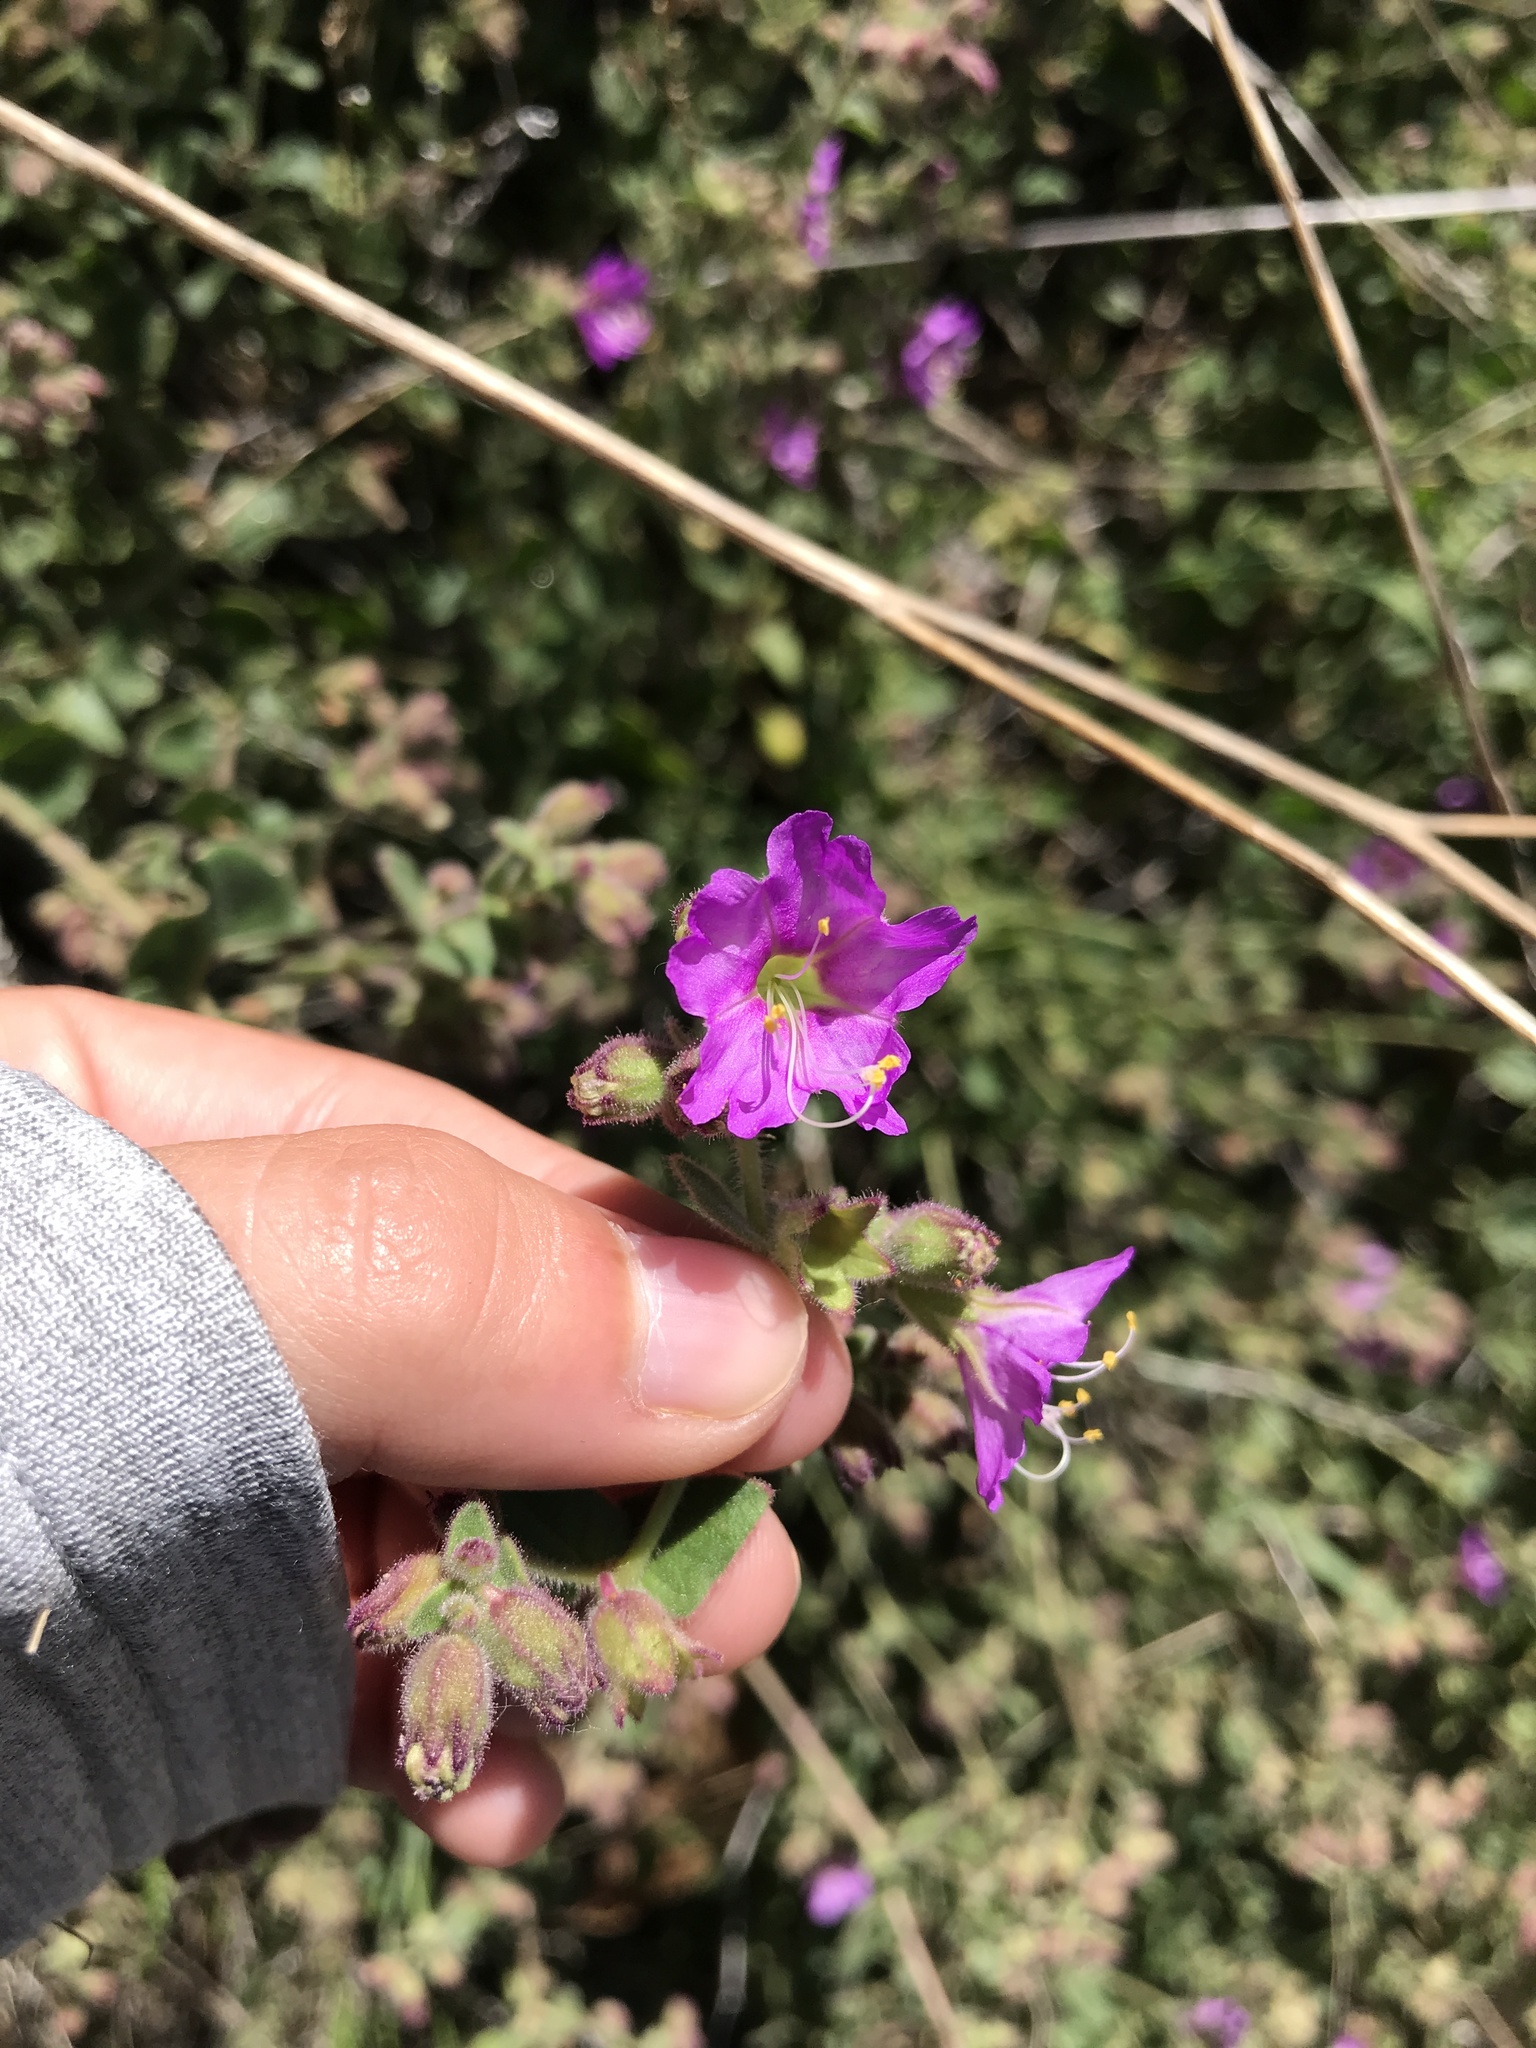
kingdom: Plantae
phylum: Tracheophyta
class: Magnoliopsida
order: Caryophyllales
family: Nyctaginaceae
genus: Mirabilis
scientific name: Mirabilis laevis
